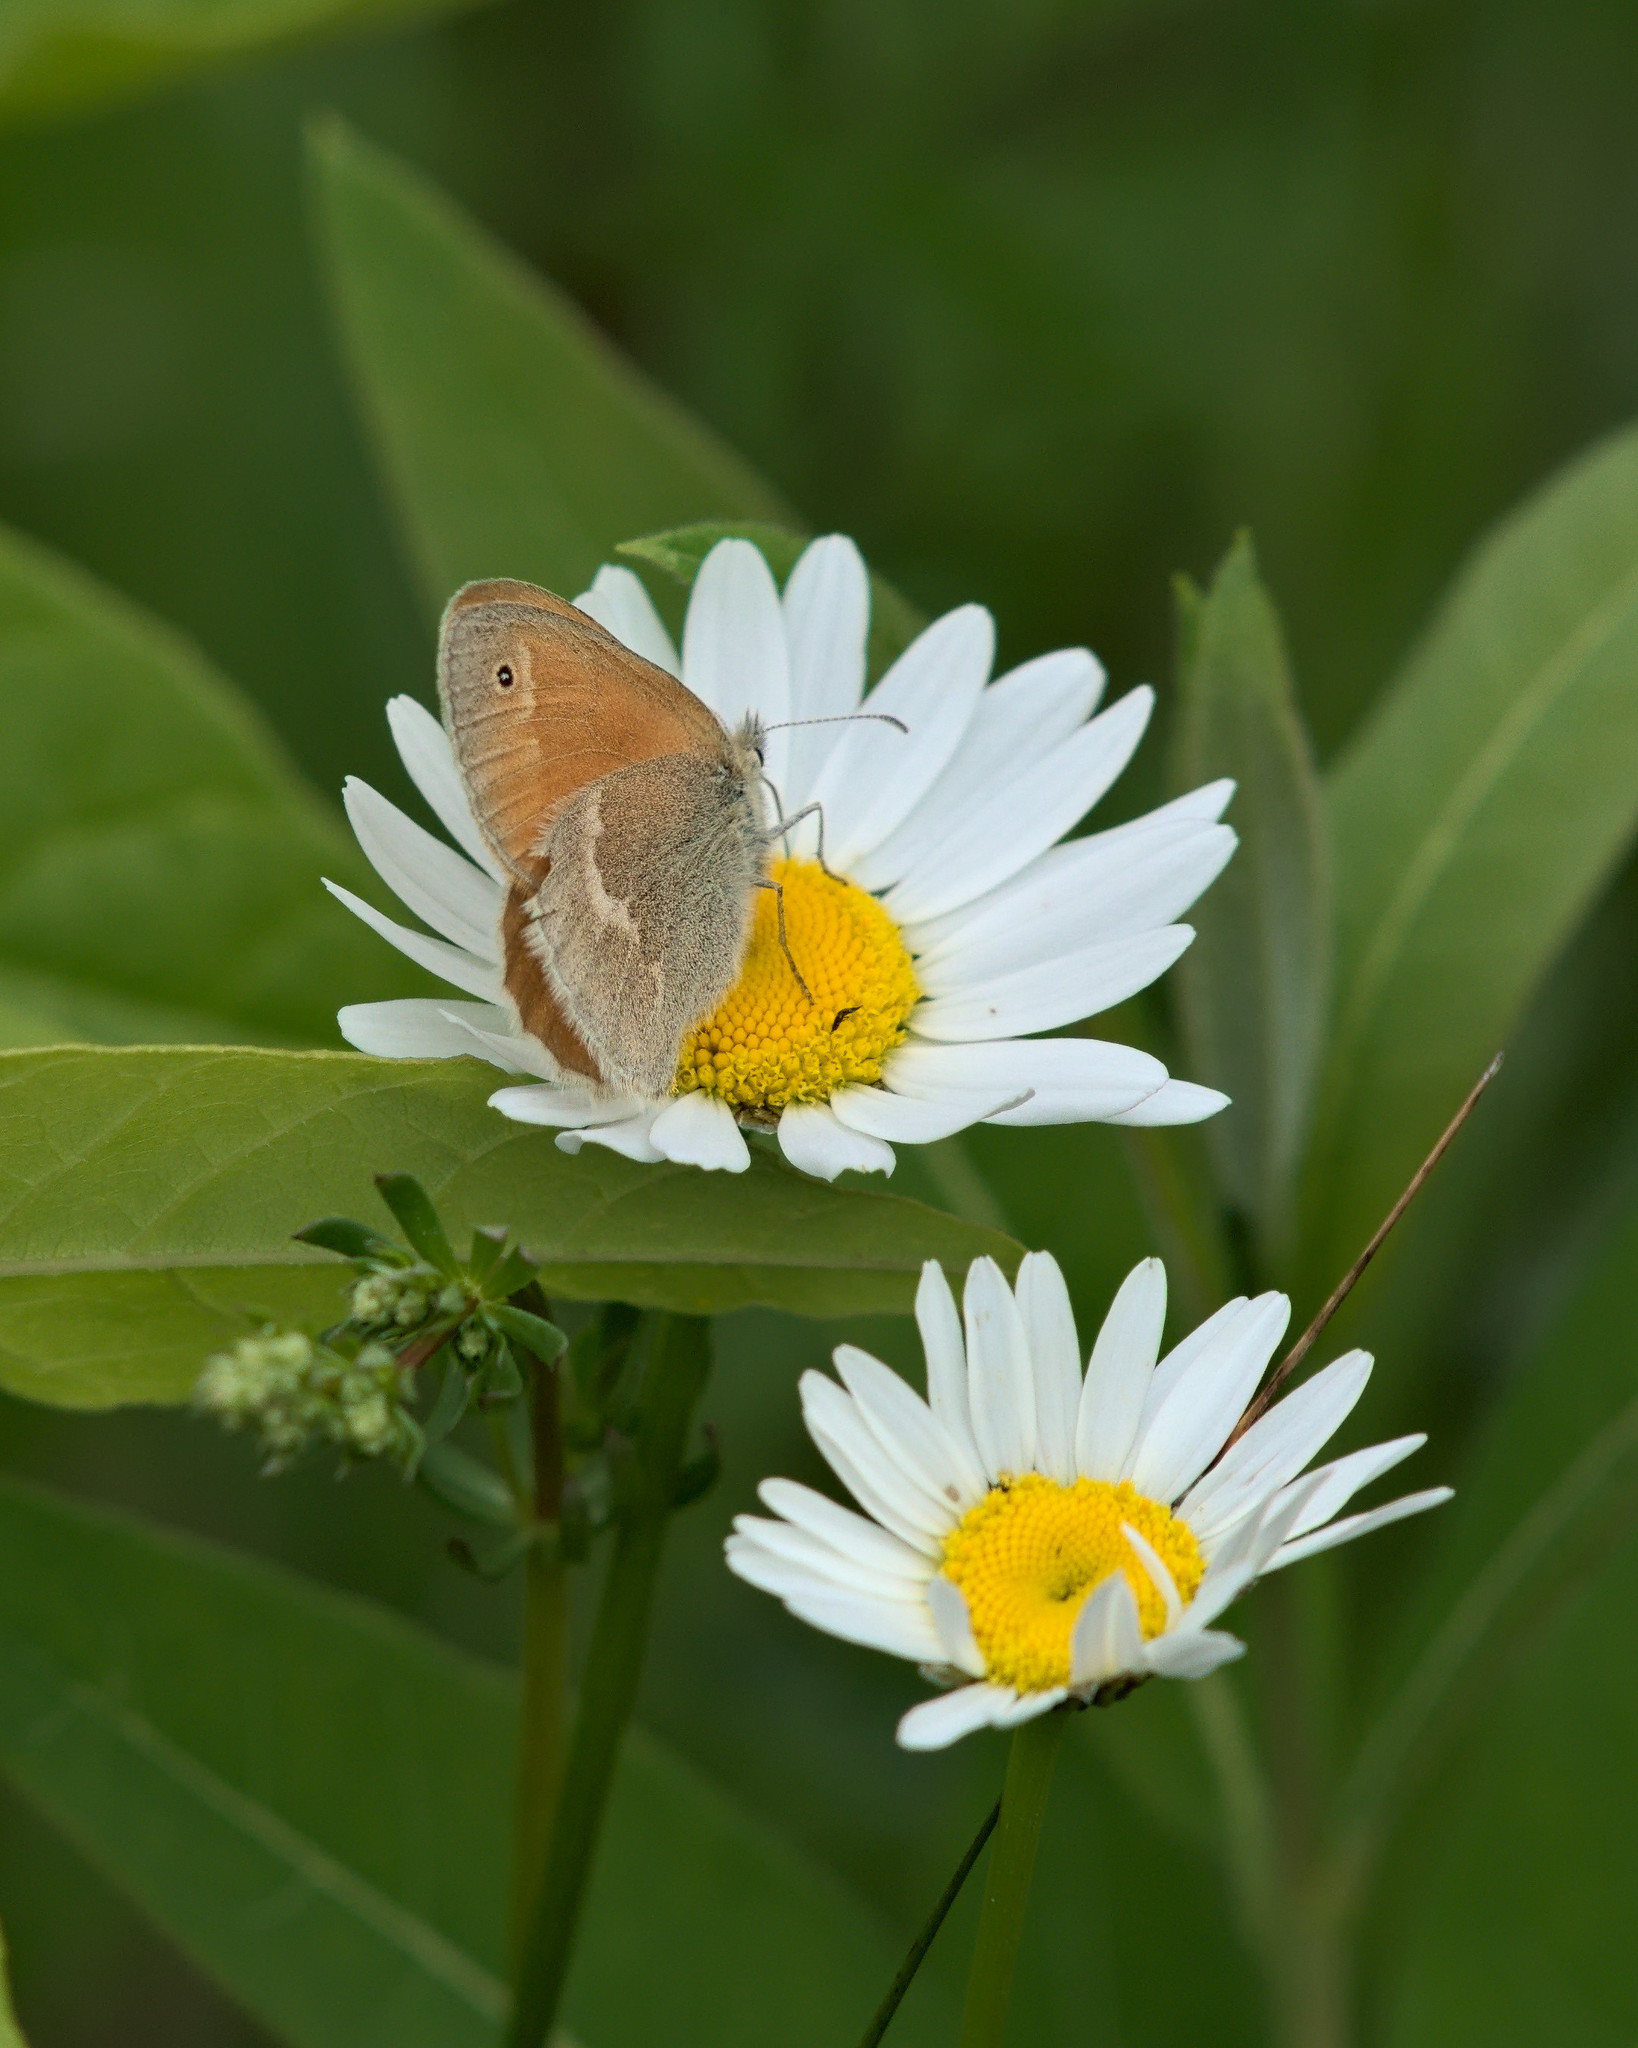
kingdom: Animalia
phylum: Arthropoda
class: Insecta
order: Lepidoptera
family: Nymphalidae
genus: Coenonympha
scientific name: Coenonympha california
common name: Common ringlet
